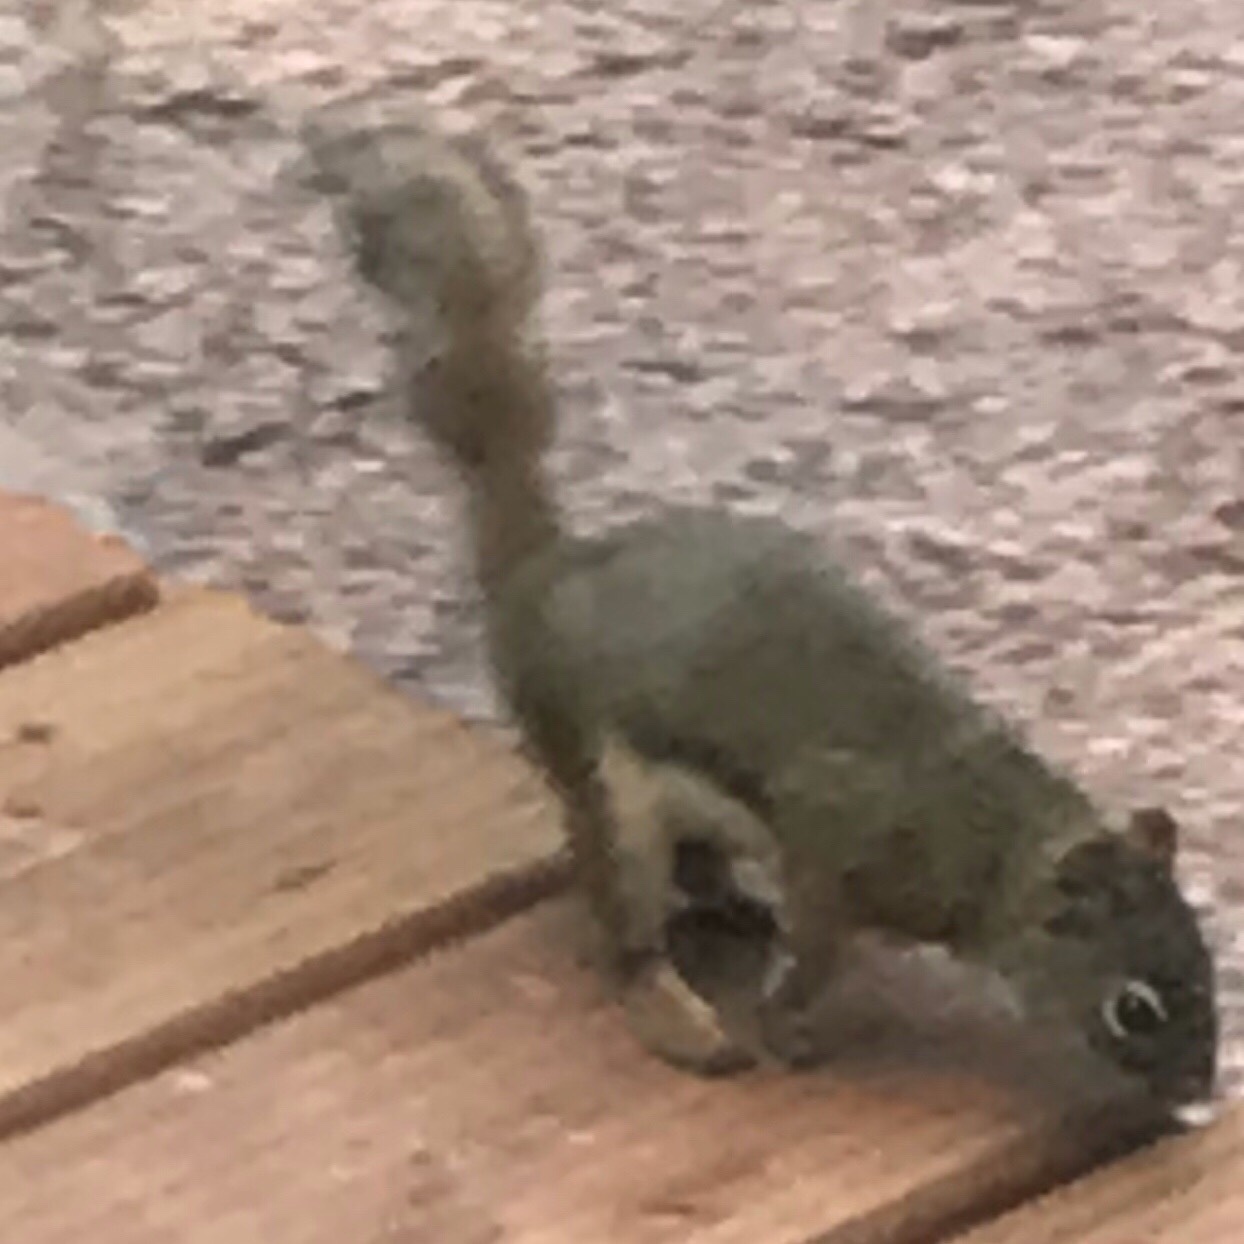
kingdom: Animalia
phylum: Chordata
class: Mammalia
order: Rodentia
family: Sciuridae
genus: Tamiasciurus
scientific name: Tamiasciurus hudsonicus
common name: Red squirrel
